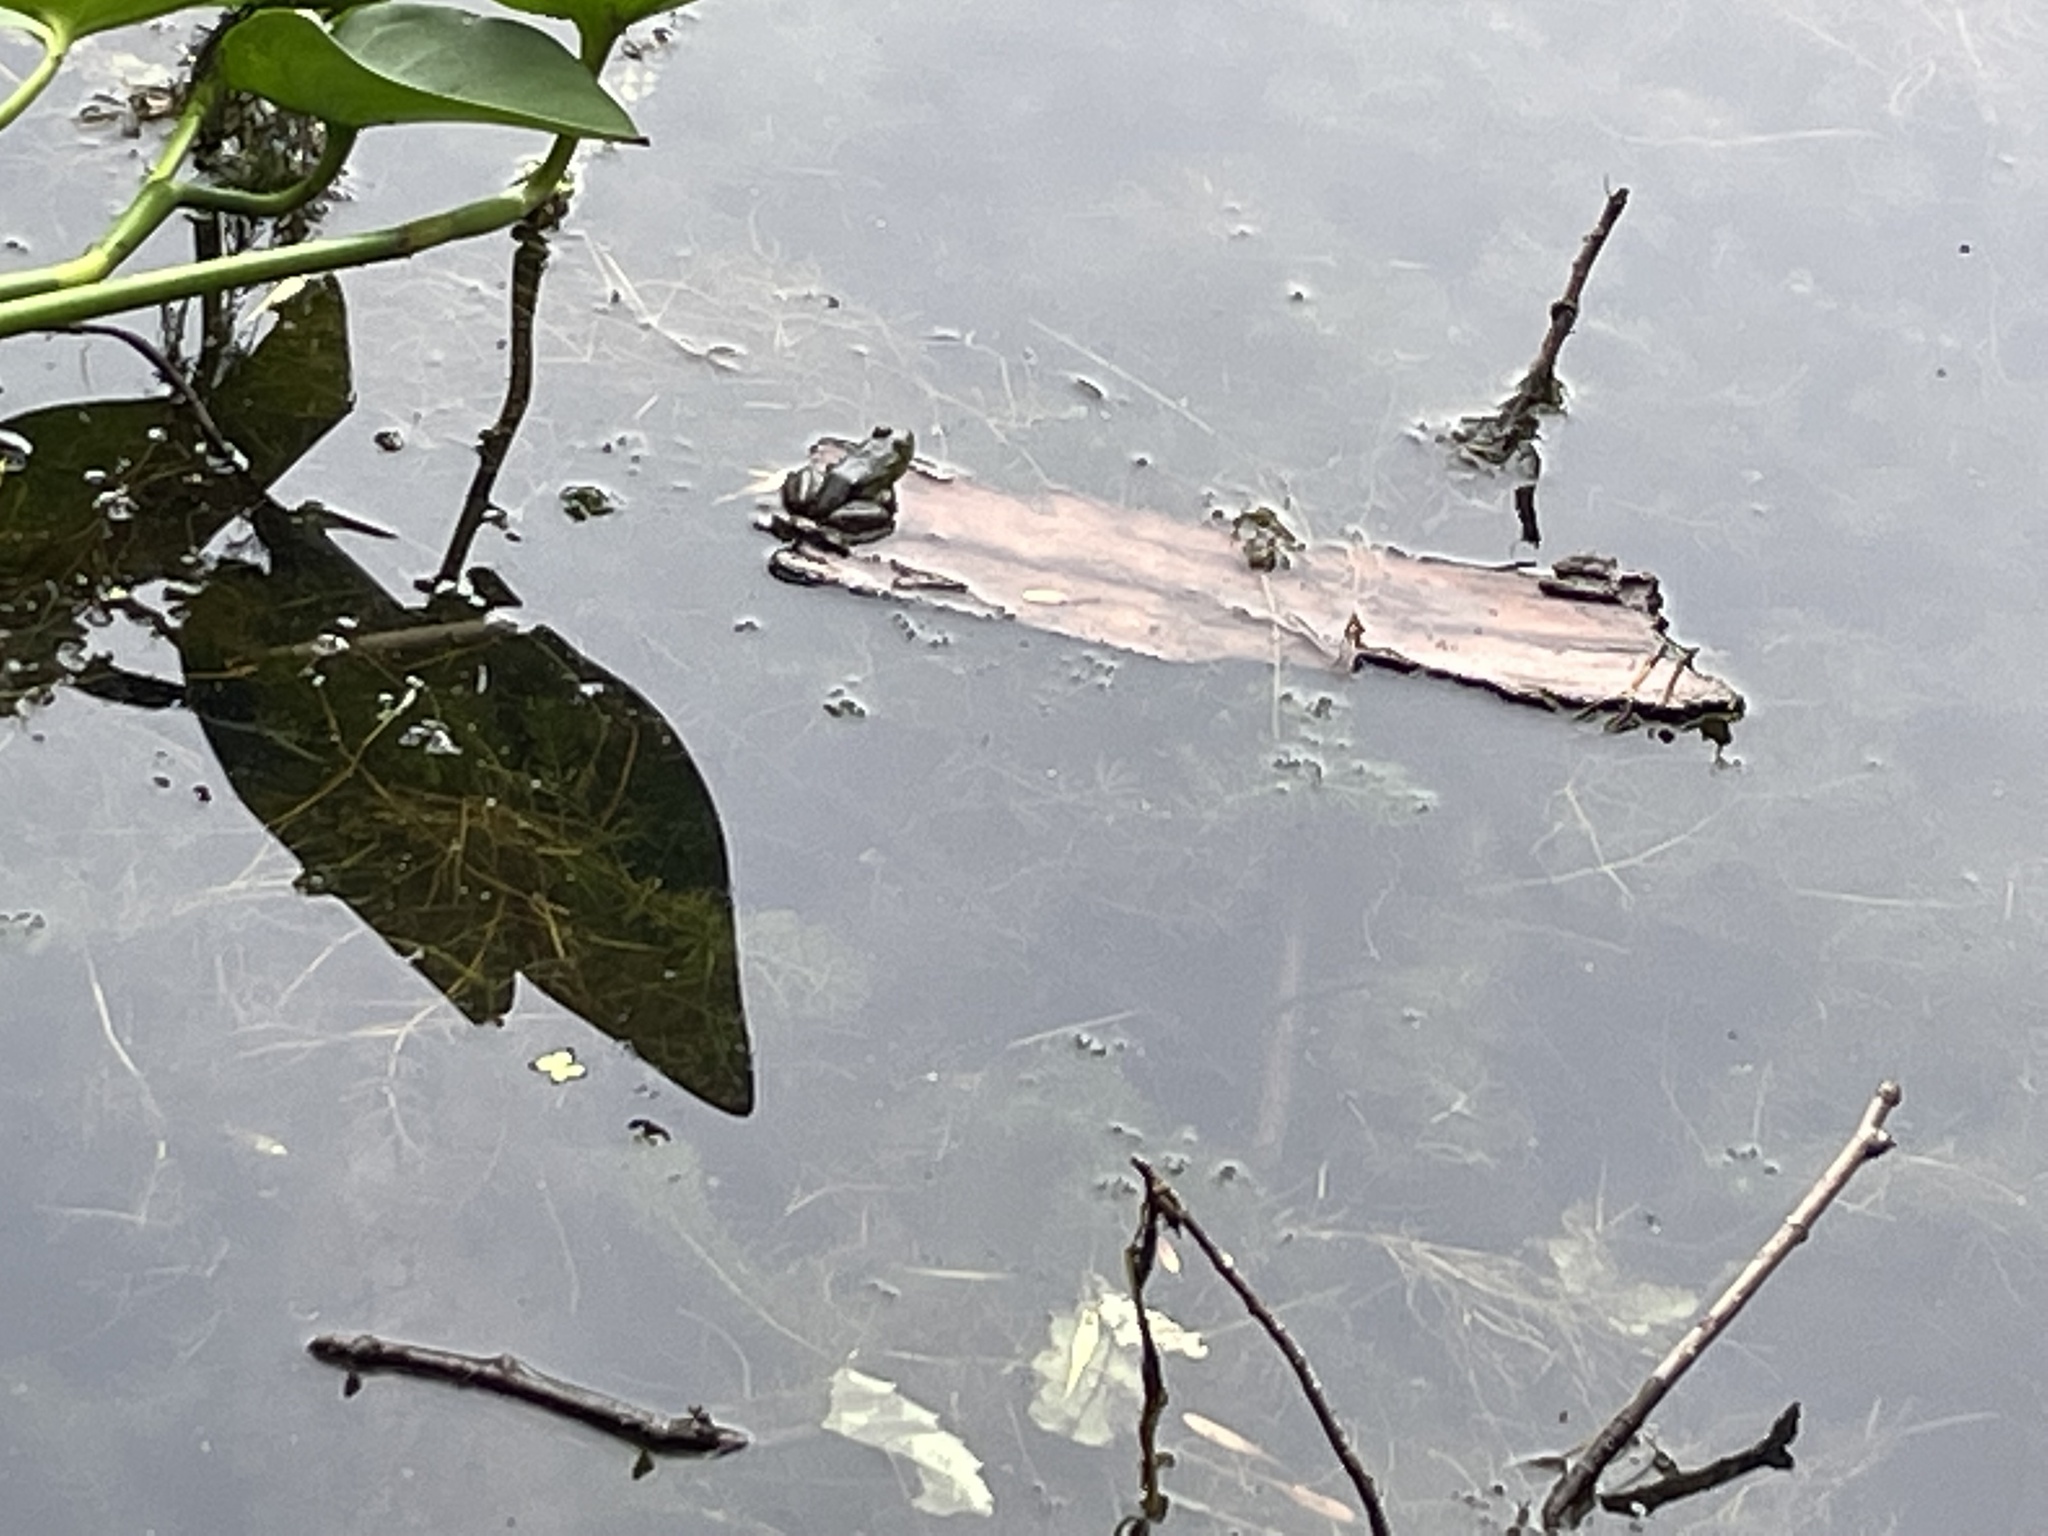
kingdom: Animalia
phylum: Chordata
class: Amphibia
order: Anura
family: Ranidae
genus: Lithobates
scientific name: Lithobates catesbeianus
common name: American bullfrog
